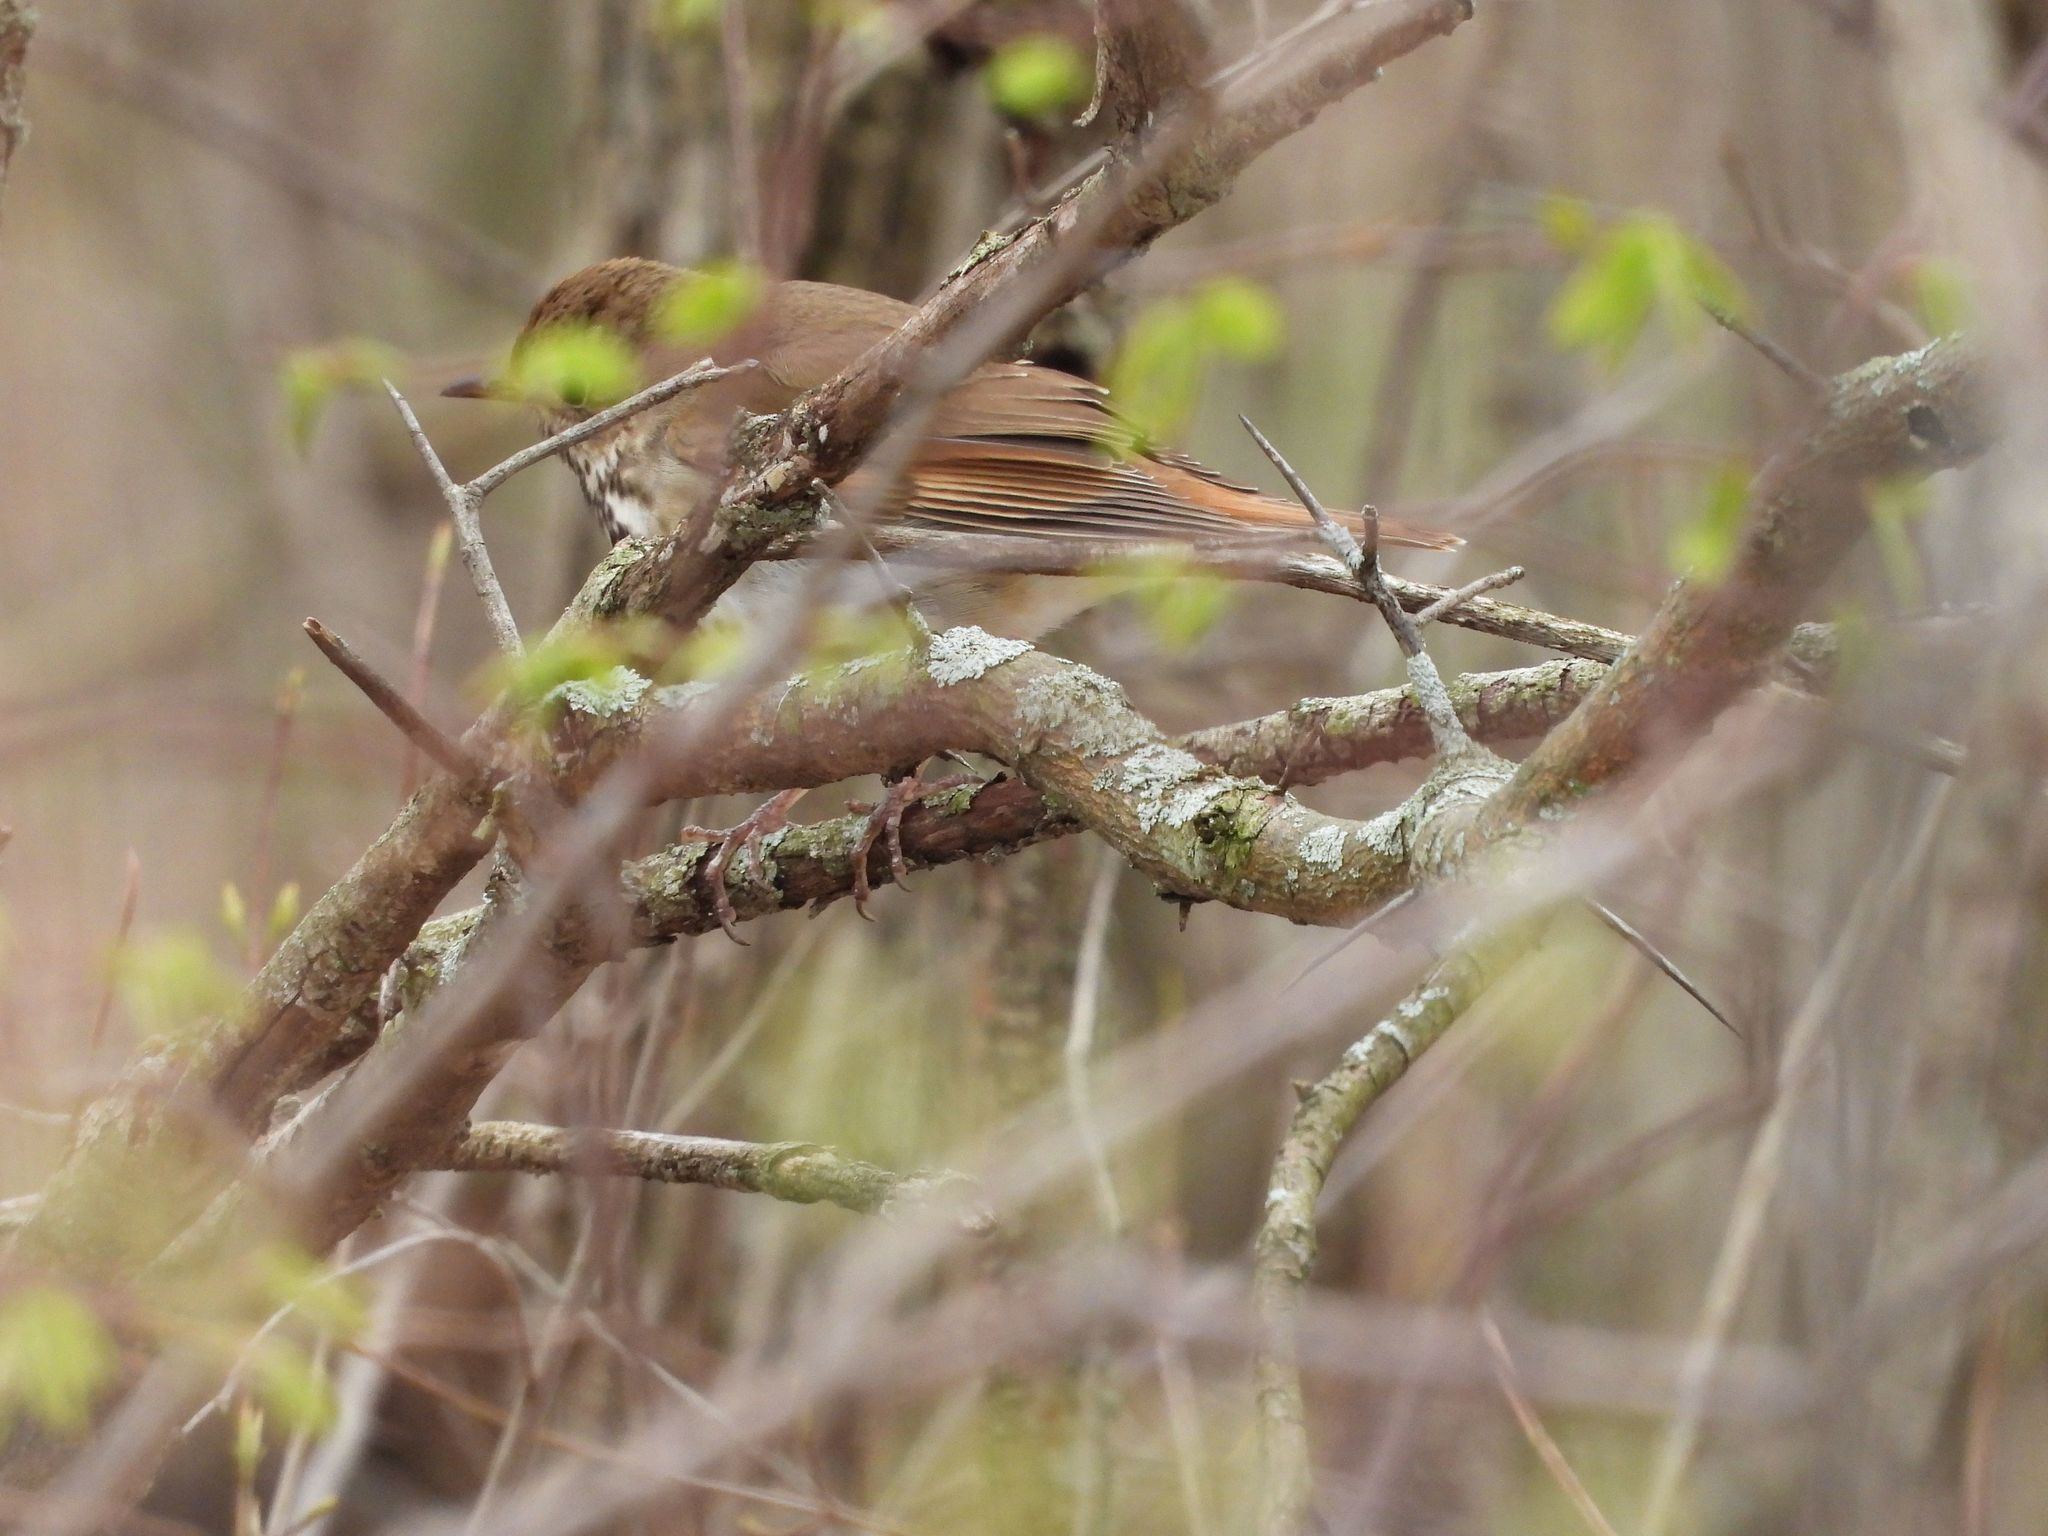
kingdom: Animalia
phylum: Chordata
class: Aves
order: Passeriformes
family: Turdidae
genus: Catharus
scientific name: Catharus guttatus
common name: Hermit thrush
